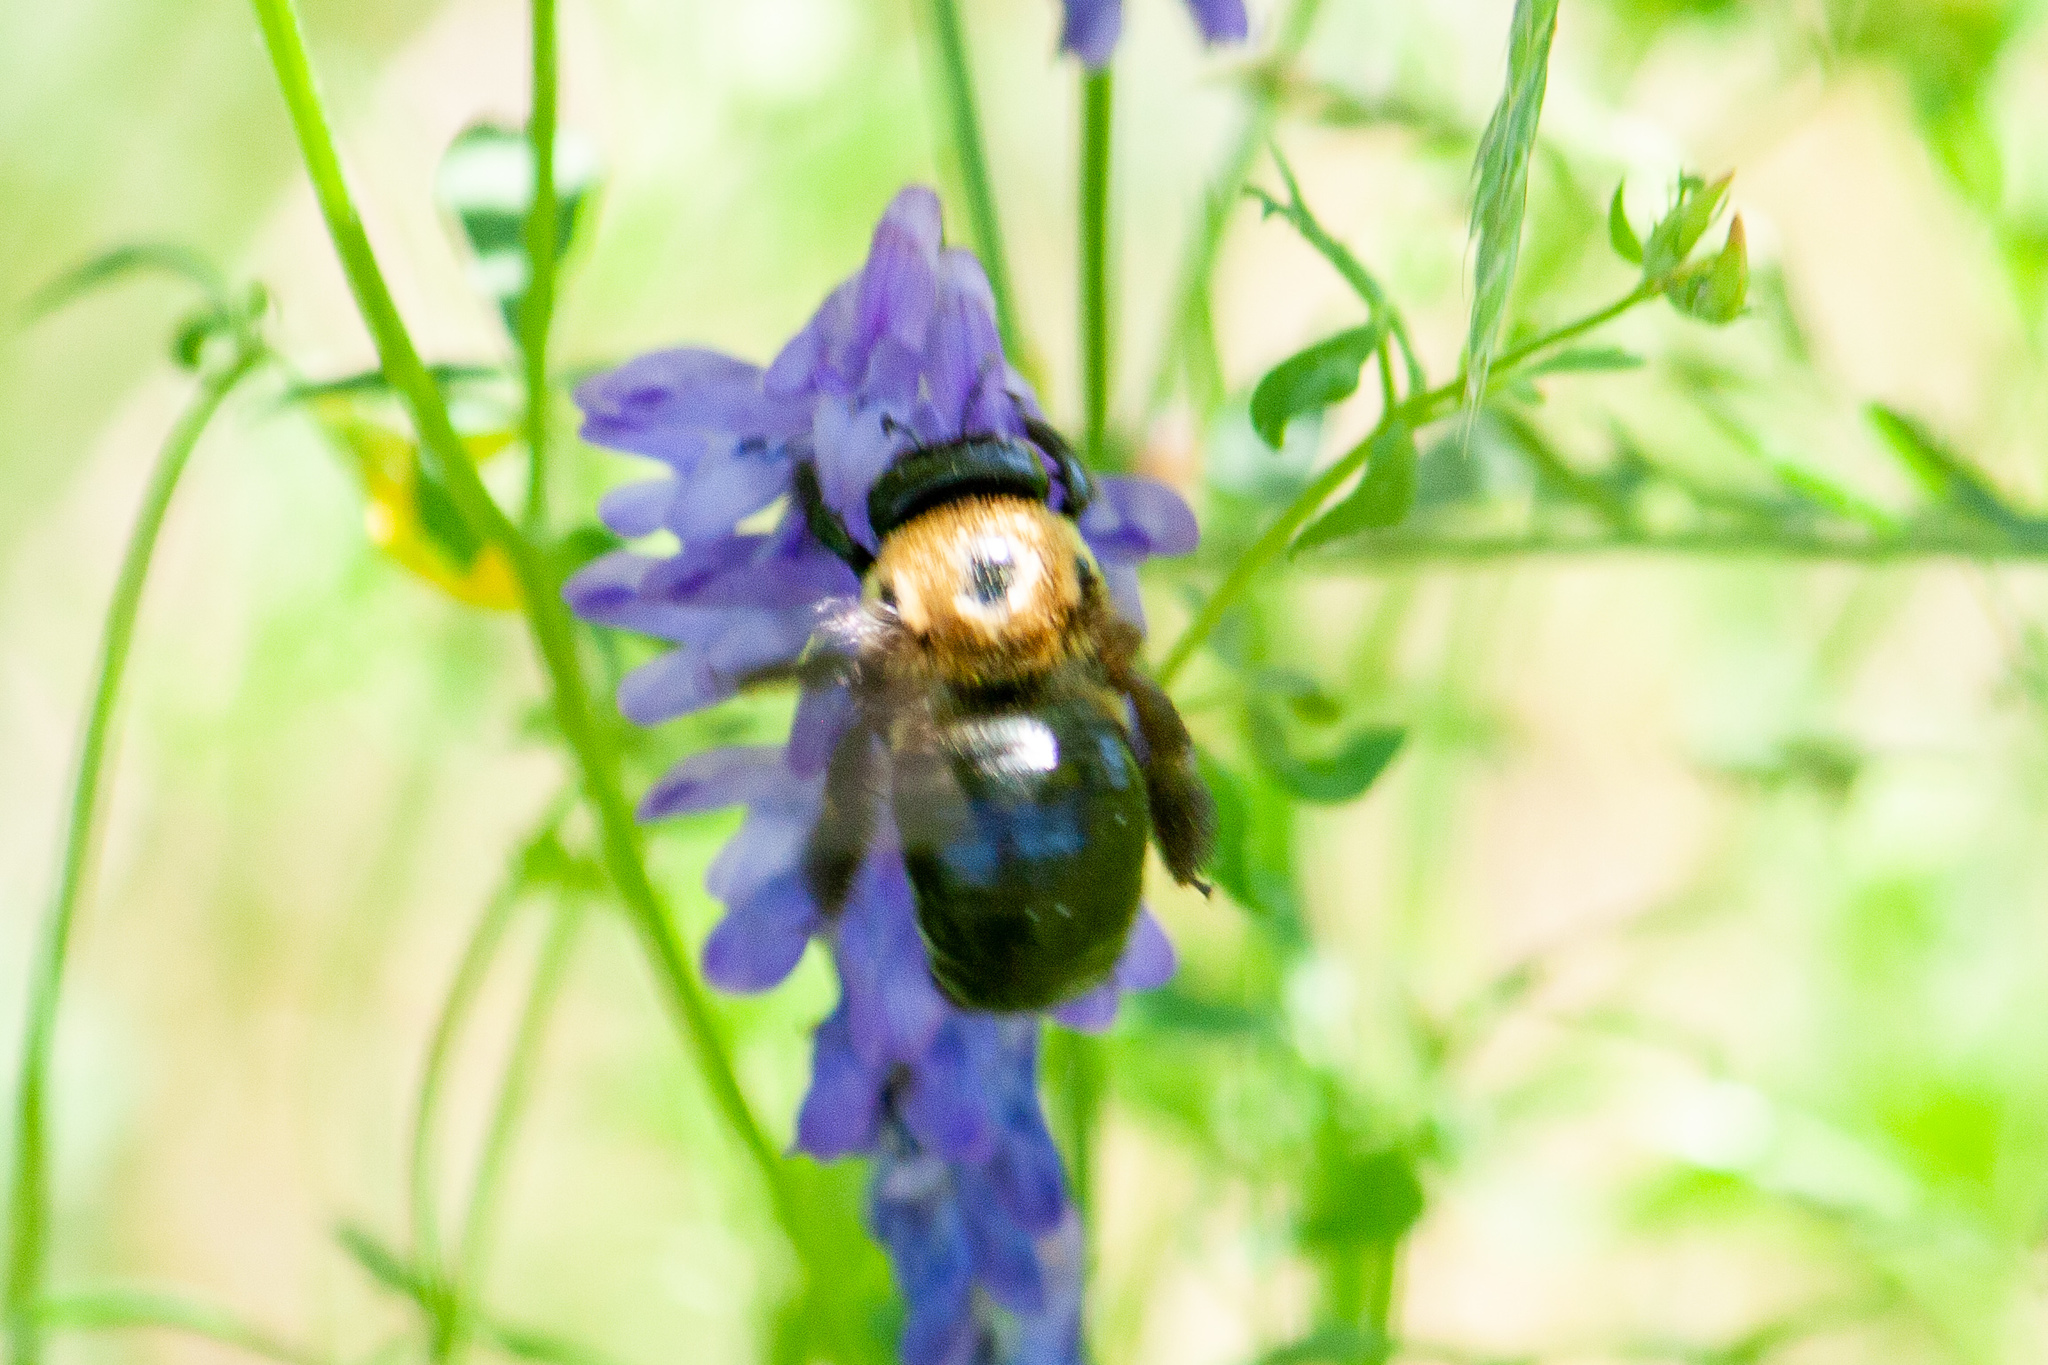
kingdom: Animalia
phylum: Arthropoda
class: Insecta
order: Hymenoptera
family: Apidae
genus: Xylocopa
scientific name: Xylocopa virginica
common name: Carpenter bee
